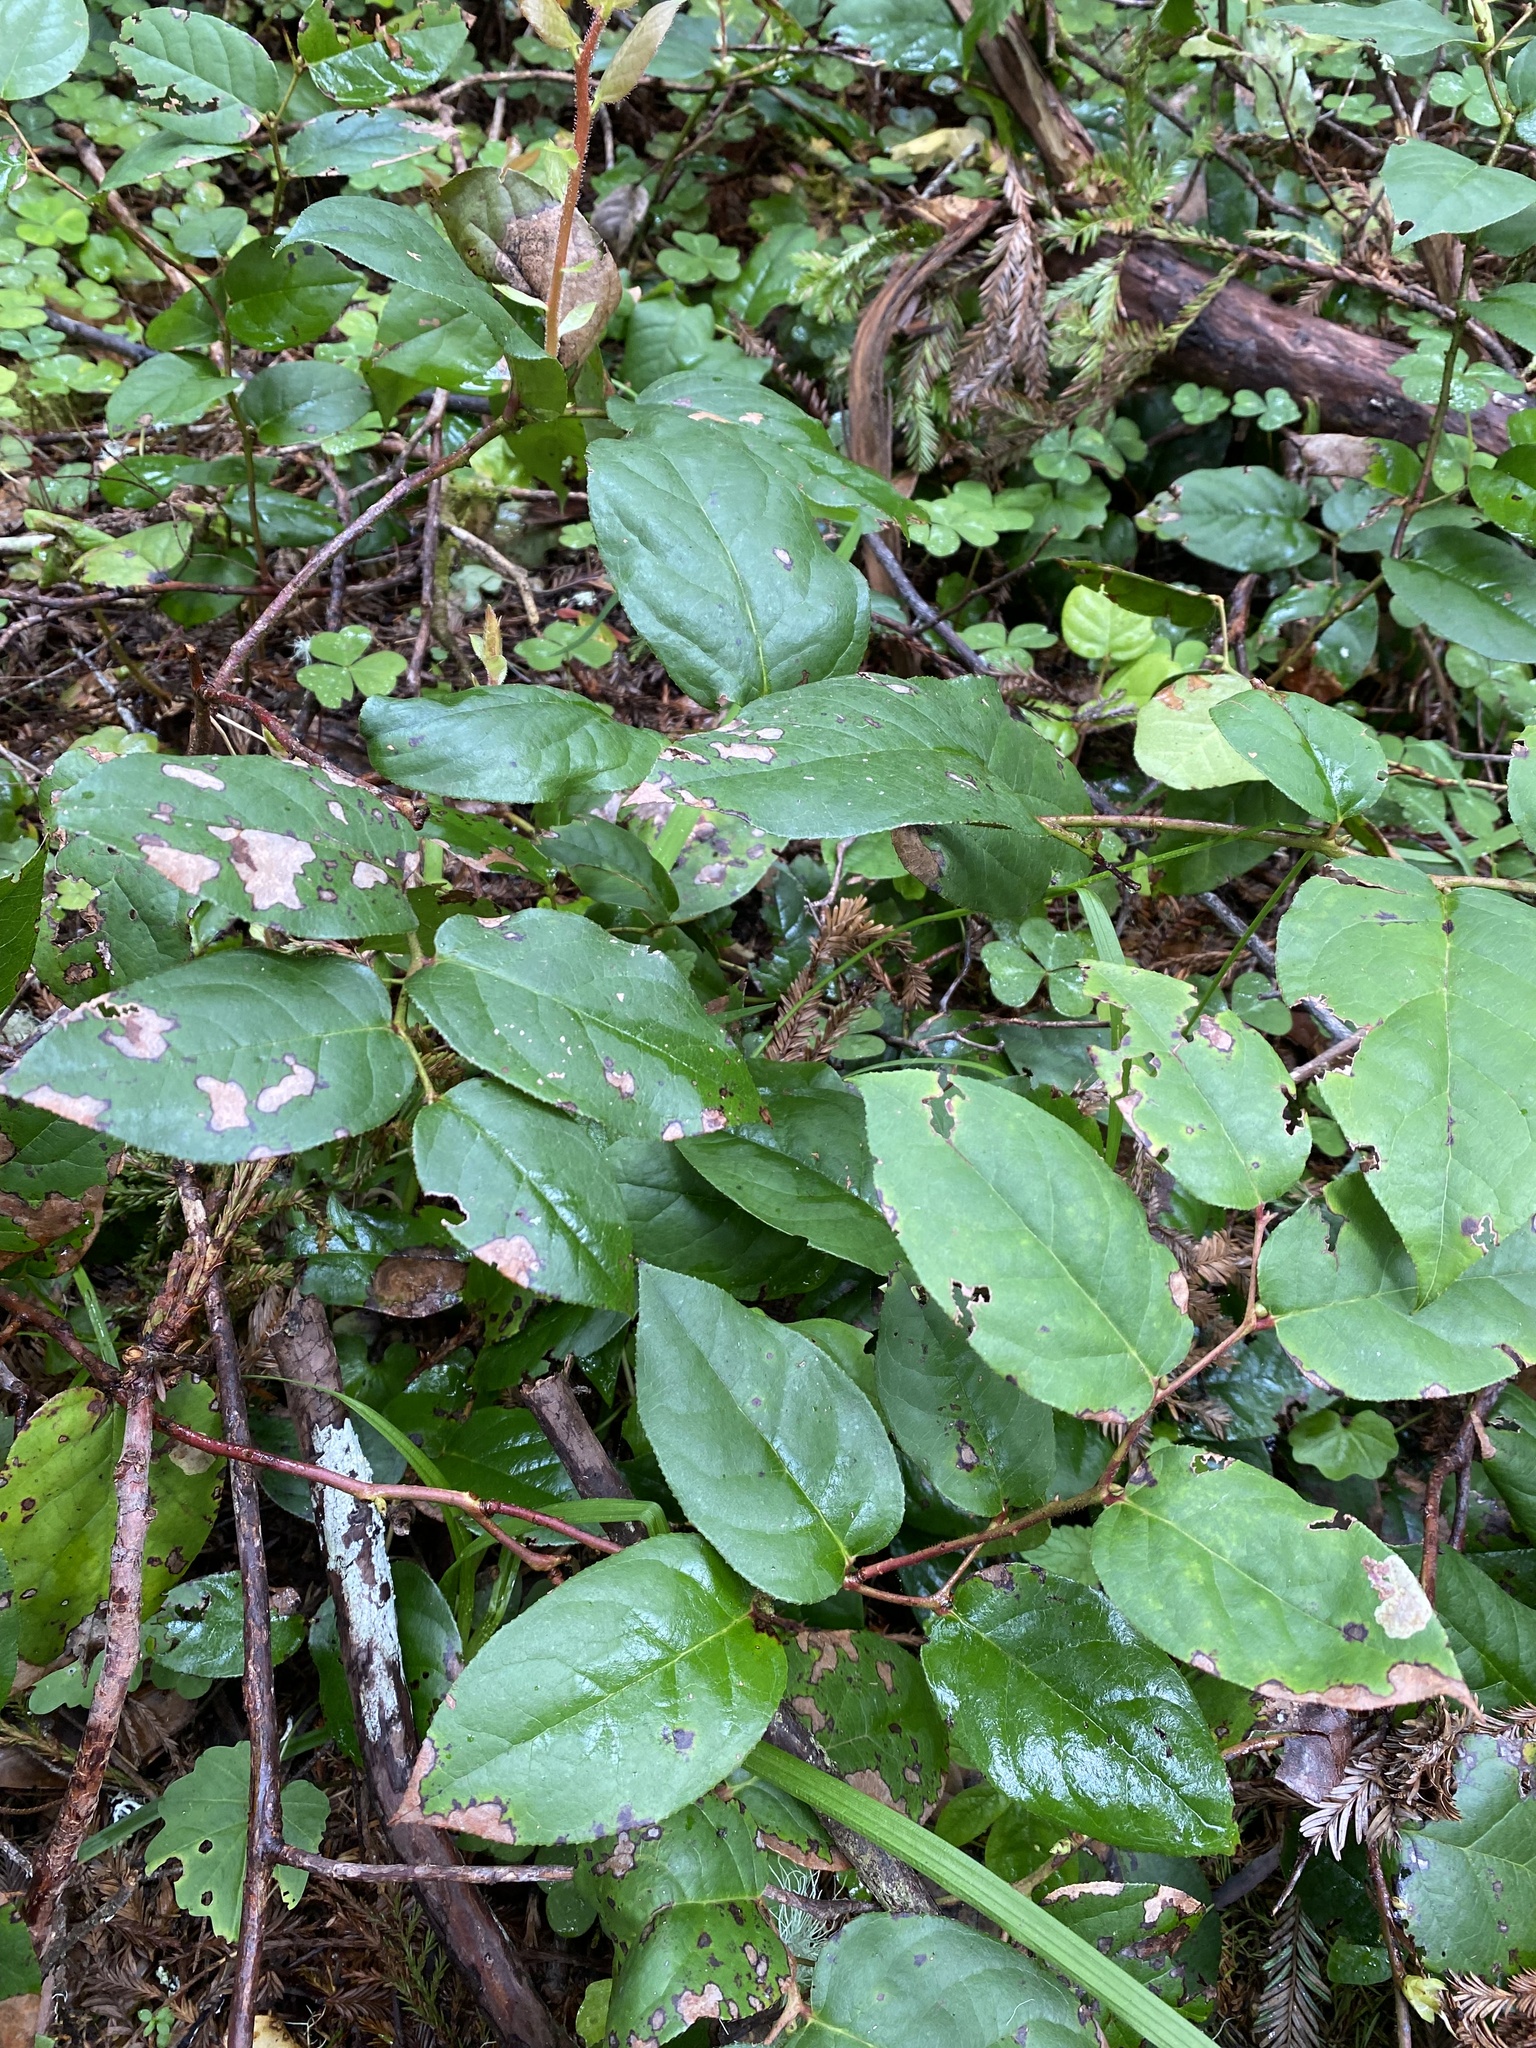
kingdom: Plantae
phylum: Tracheophyta
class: Magnoliopsida
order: Ericales
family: Ericaceae
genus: Gaultheria
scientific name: Gaultheria shallon
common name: Shallon
